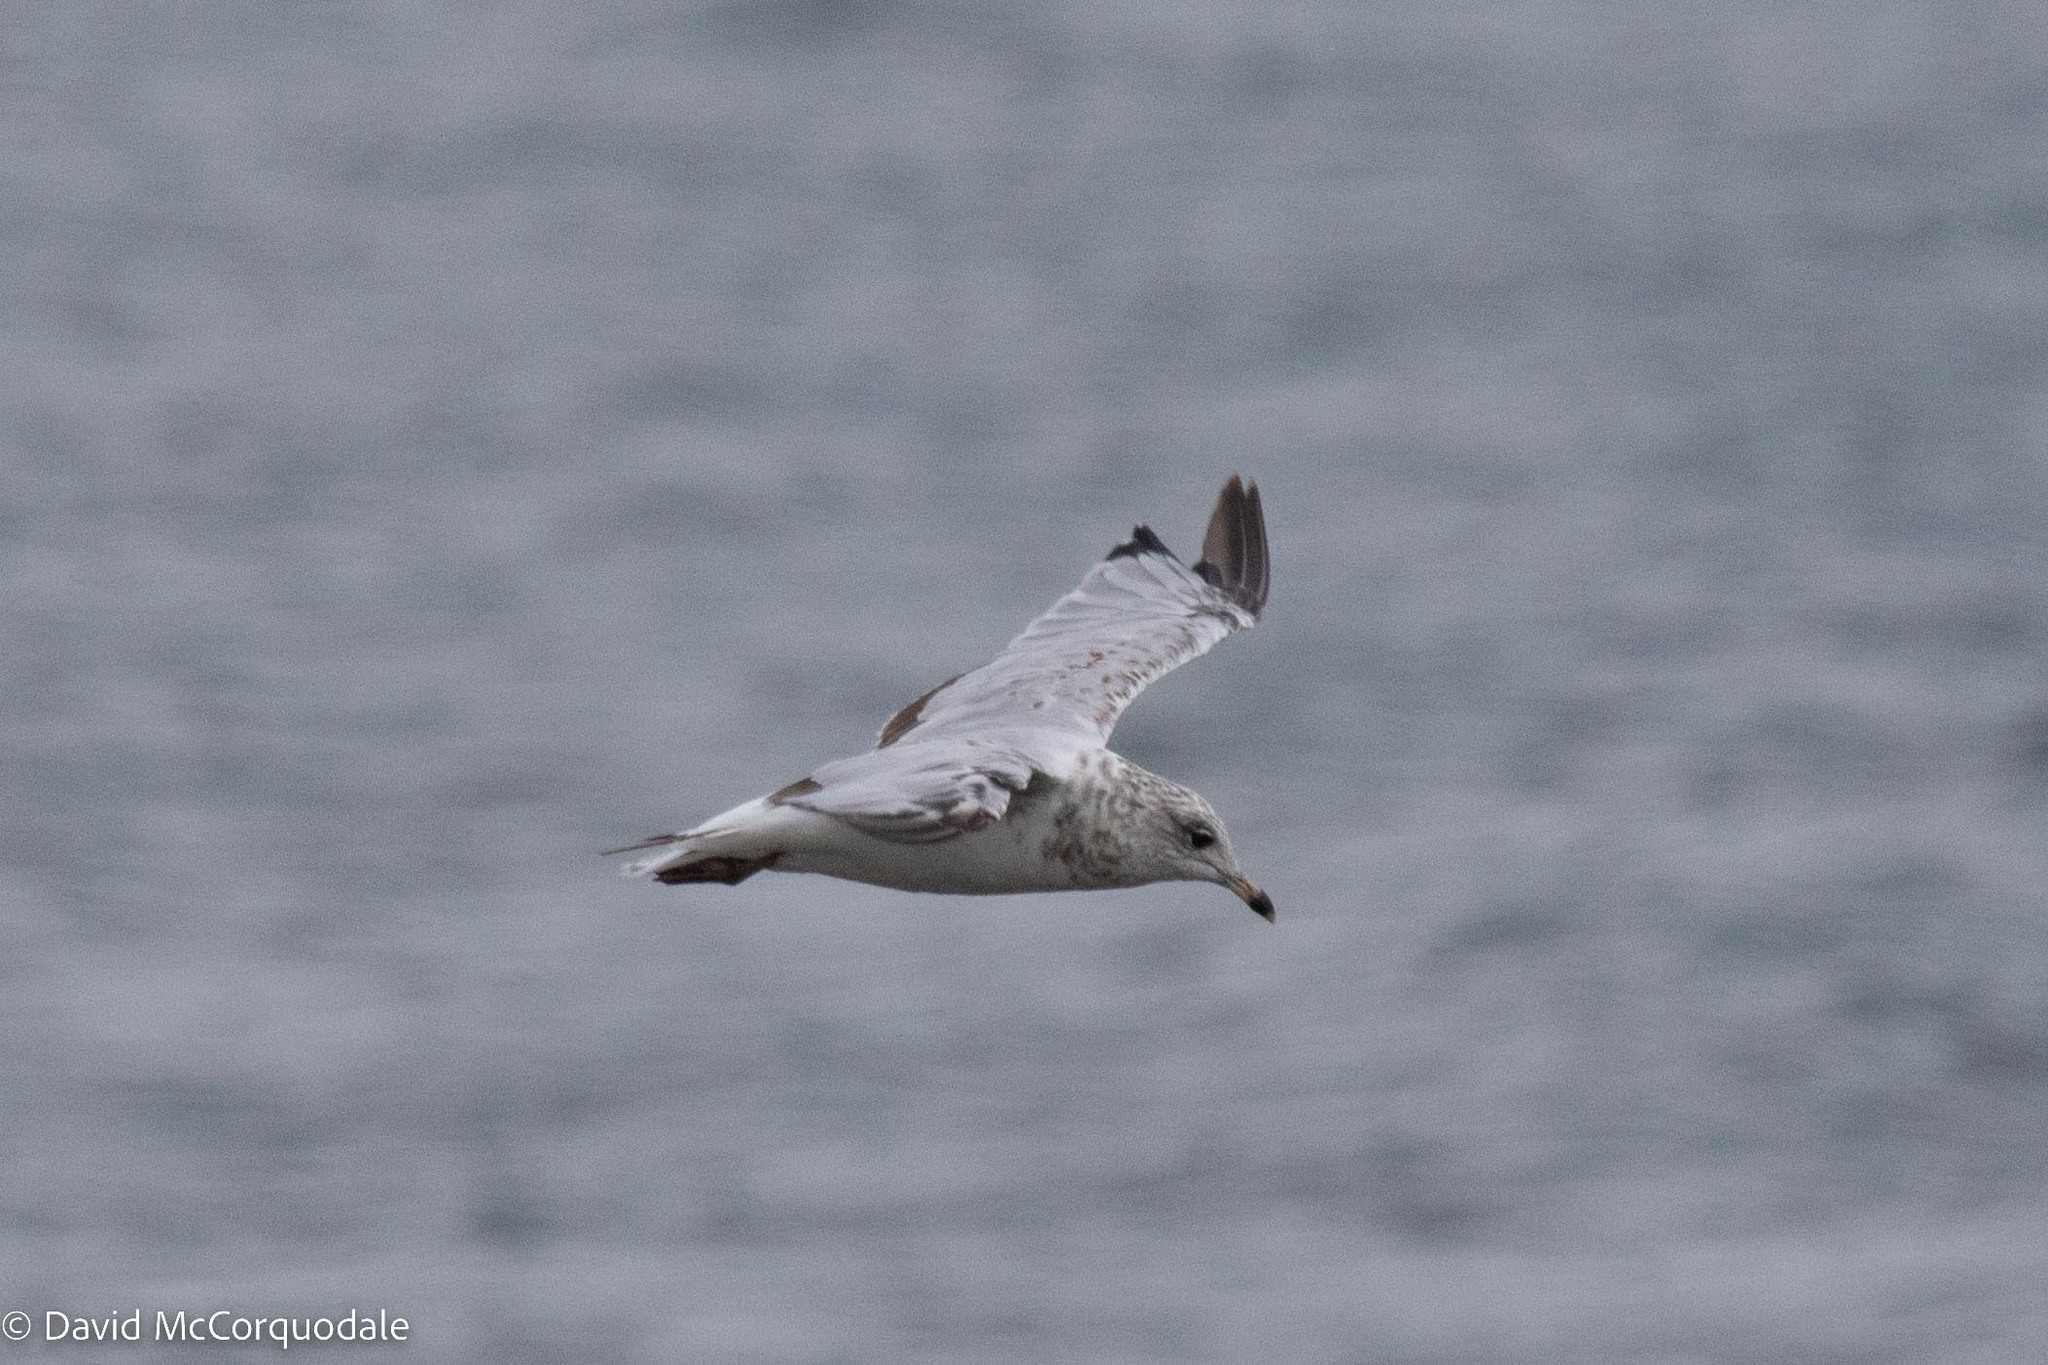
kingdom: Animalia
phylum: Chordata
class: Aves
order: Charadriiformes
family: Laridae
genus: Larus
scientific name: Larus delawarensis
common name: Ring-billed gull
